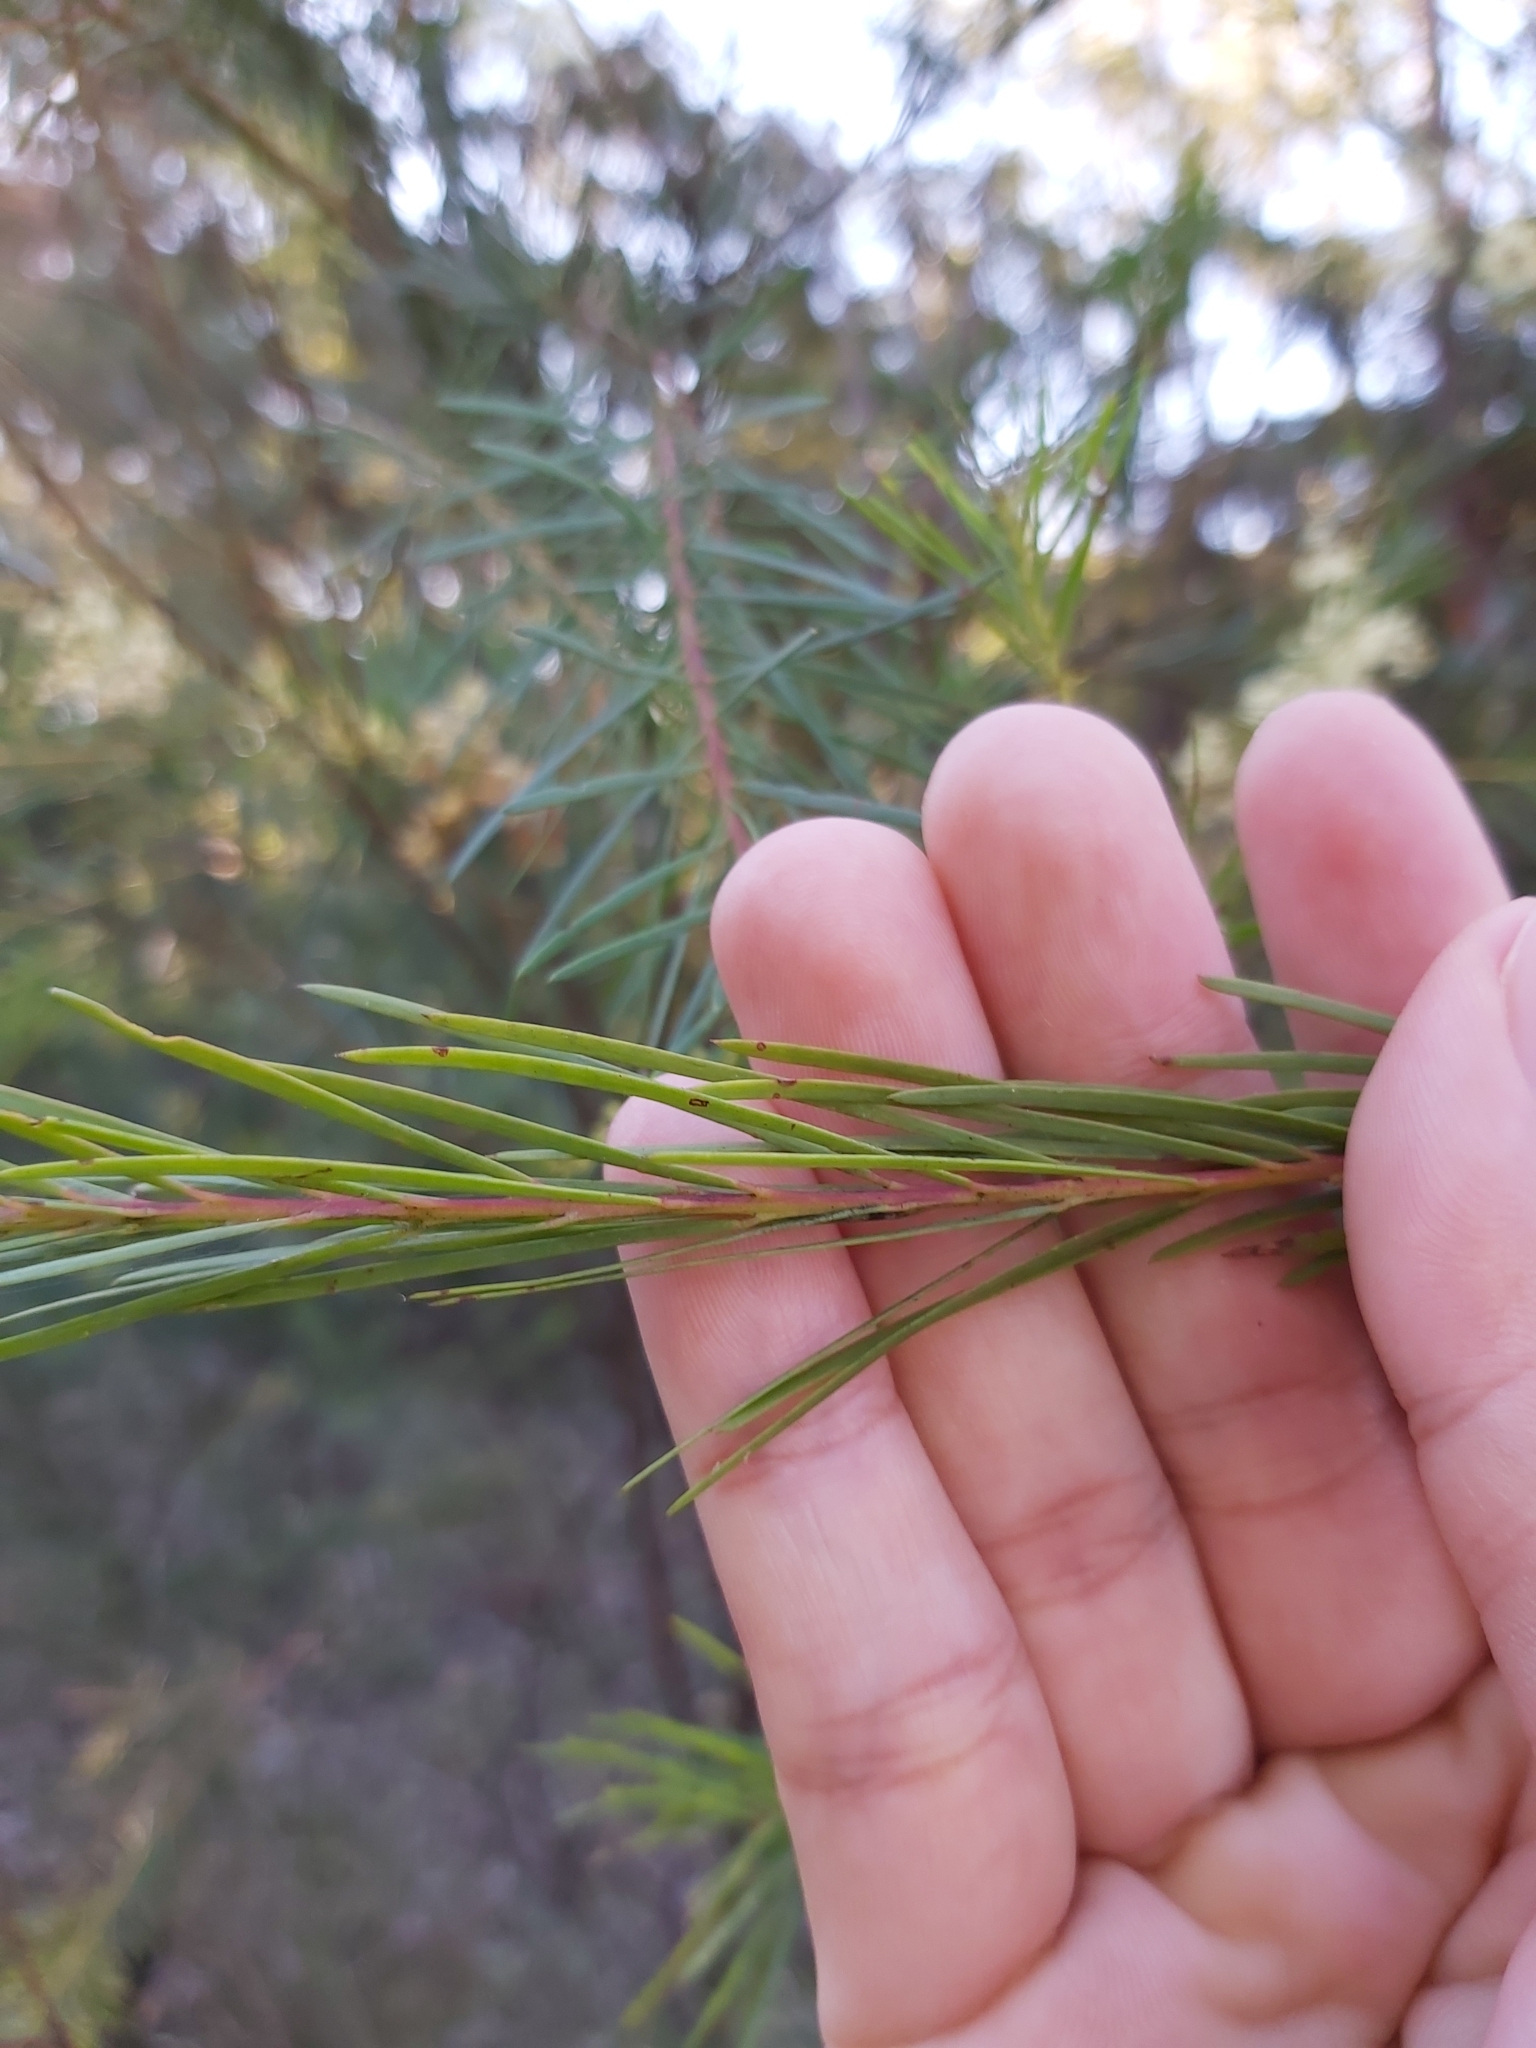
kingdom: Plantae
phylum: Tracheophyta
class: Magnoliopsida
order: Fabales
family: Fabaceae
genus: Acacia
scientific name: Acacia linifolia
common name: White wattle
